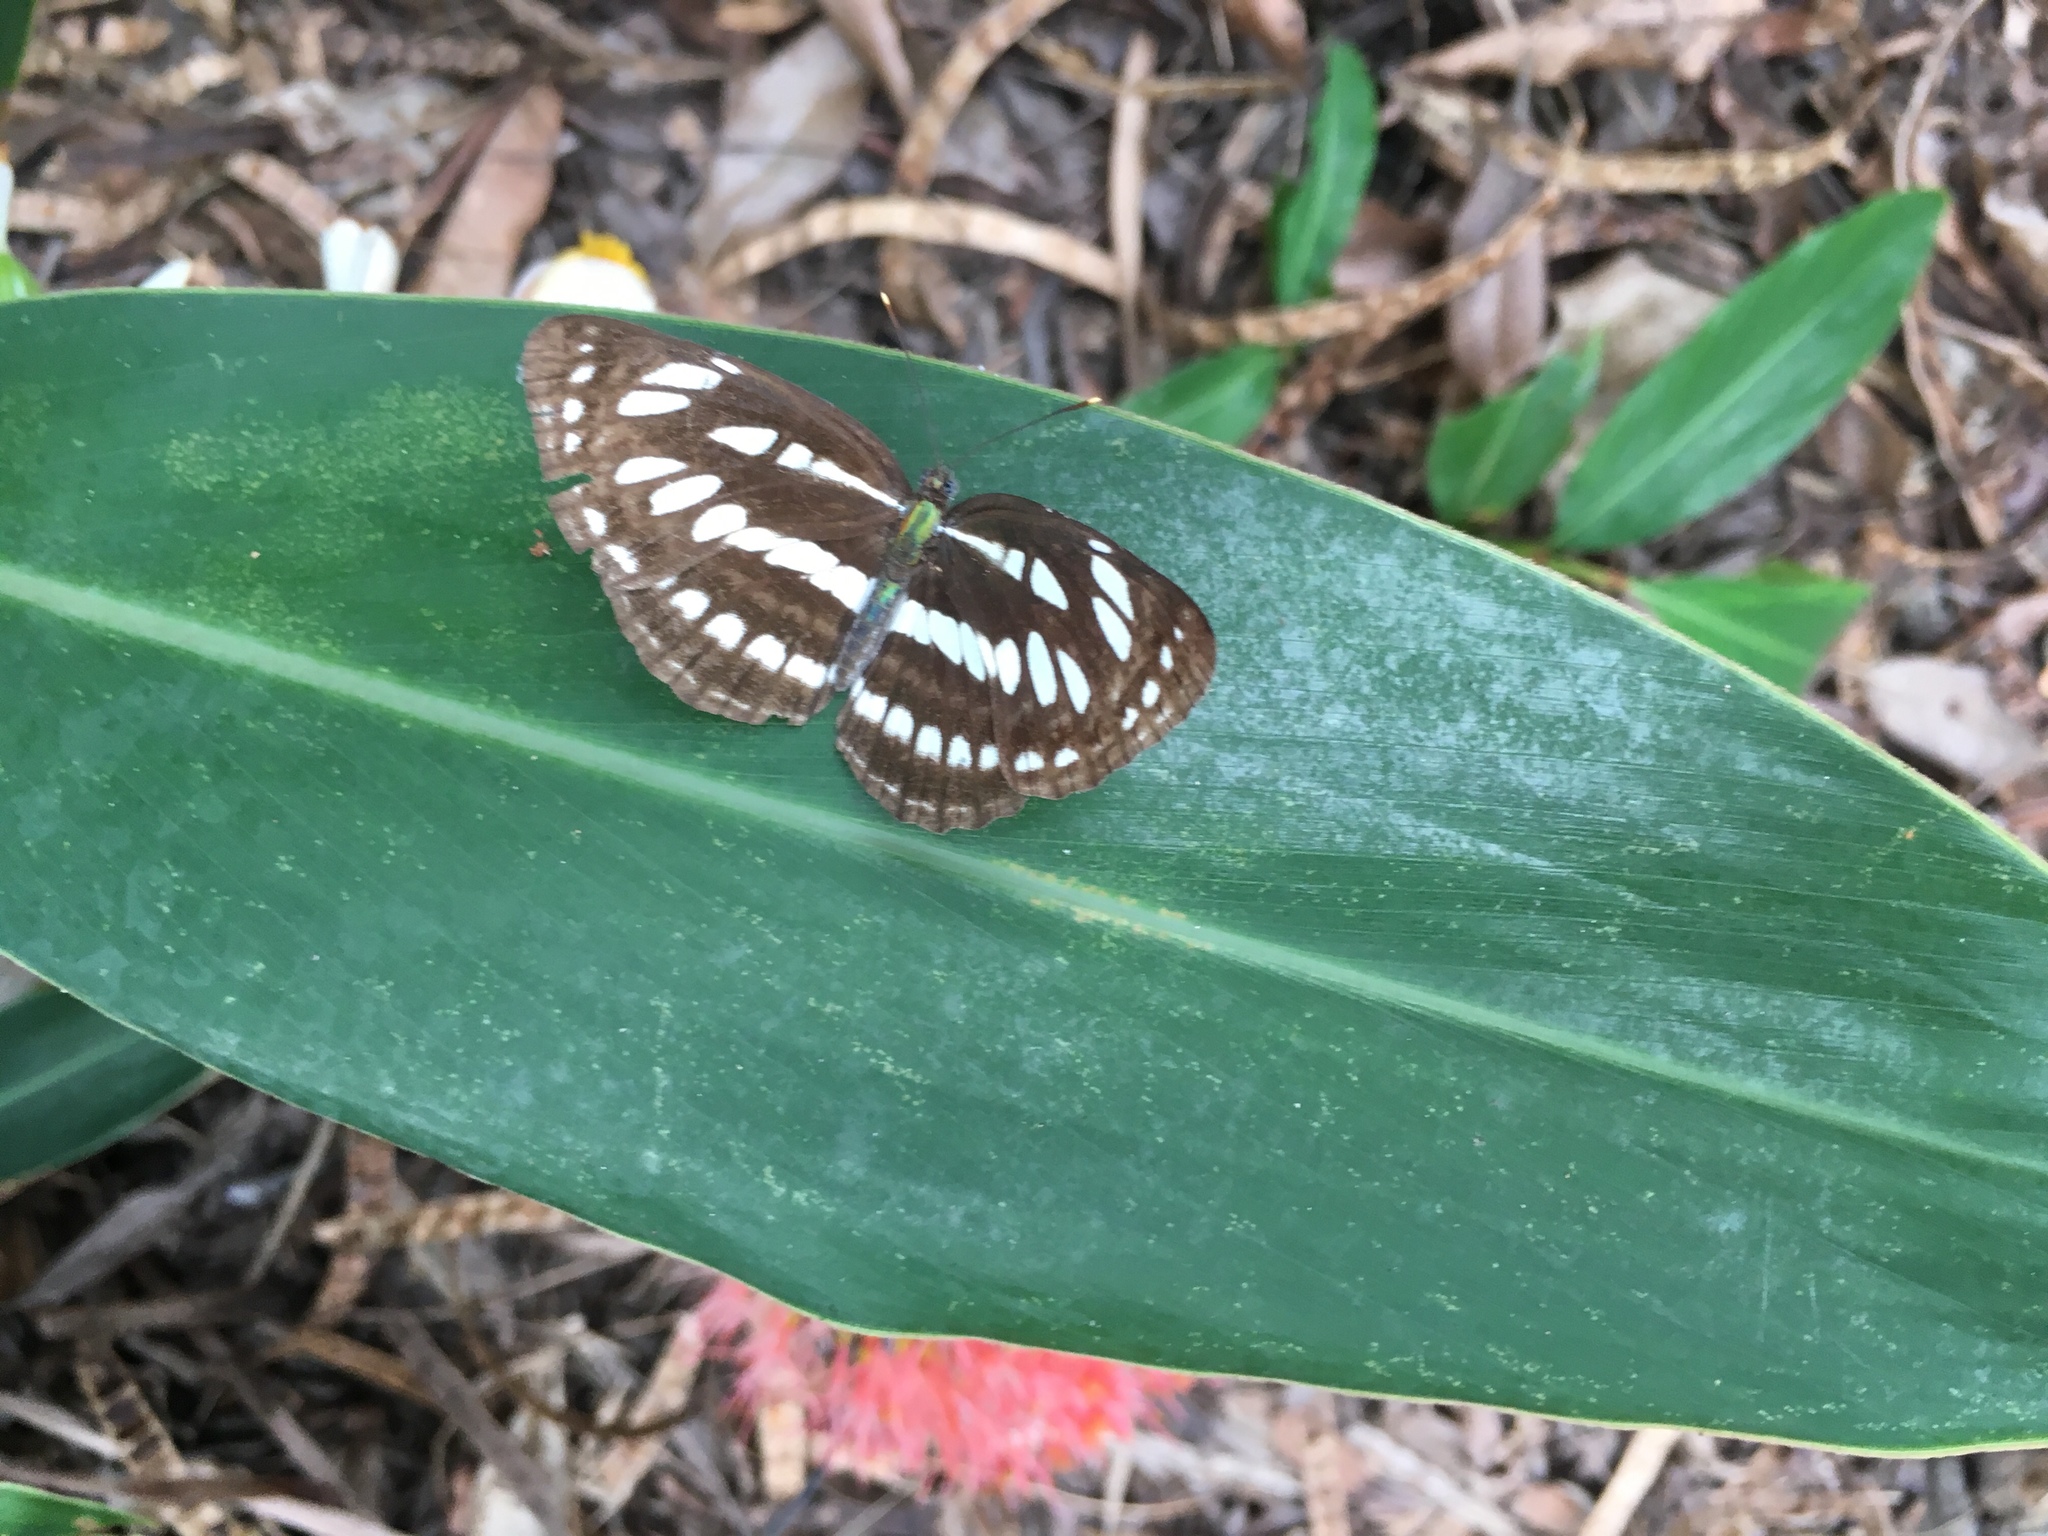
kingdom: Animalia
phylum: Arthropoda
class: Insecta
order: Lepidoptera
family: Nymphalidae
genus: Neptis
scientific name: Neptis hylas
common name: Common sailer
